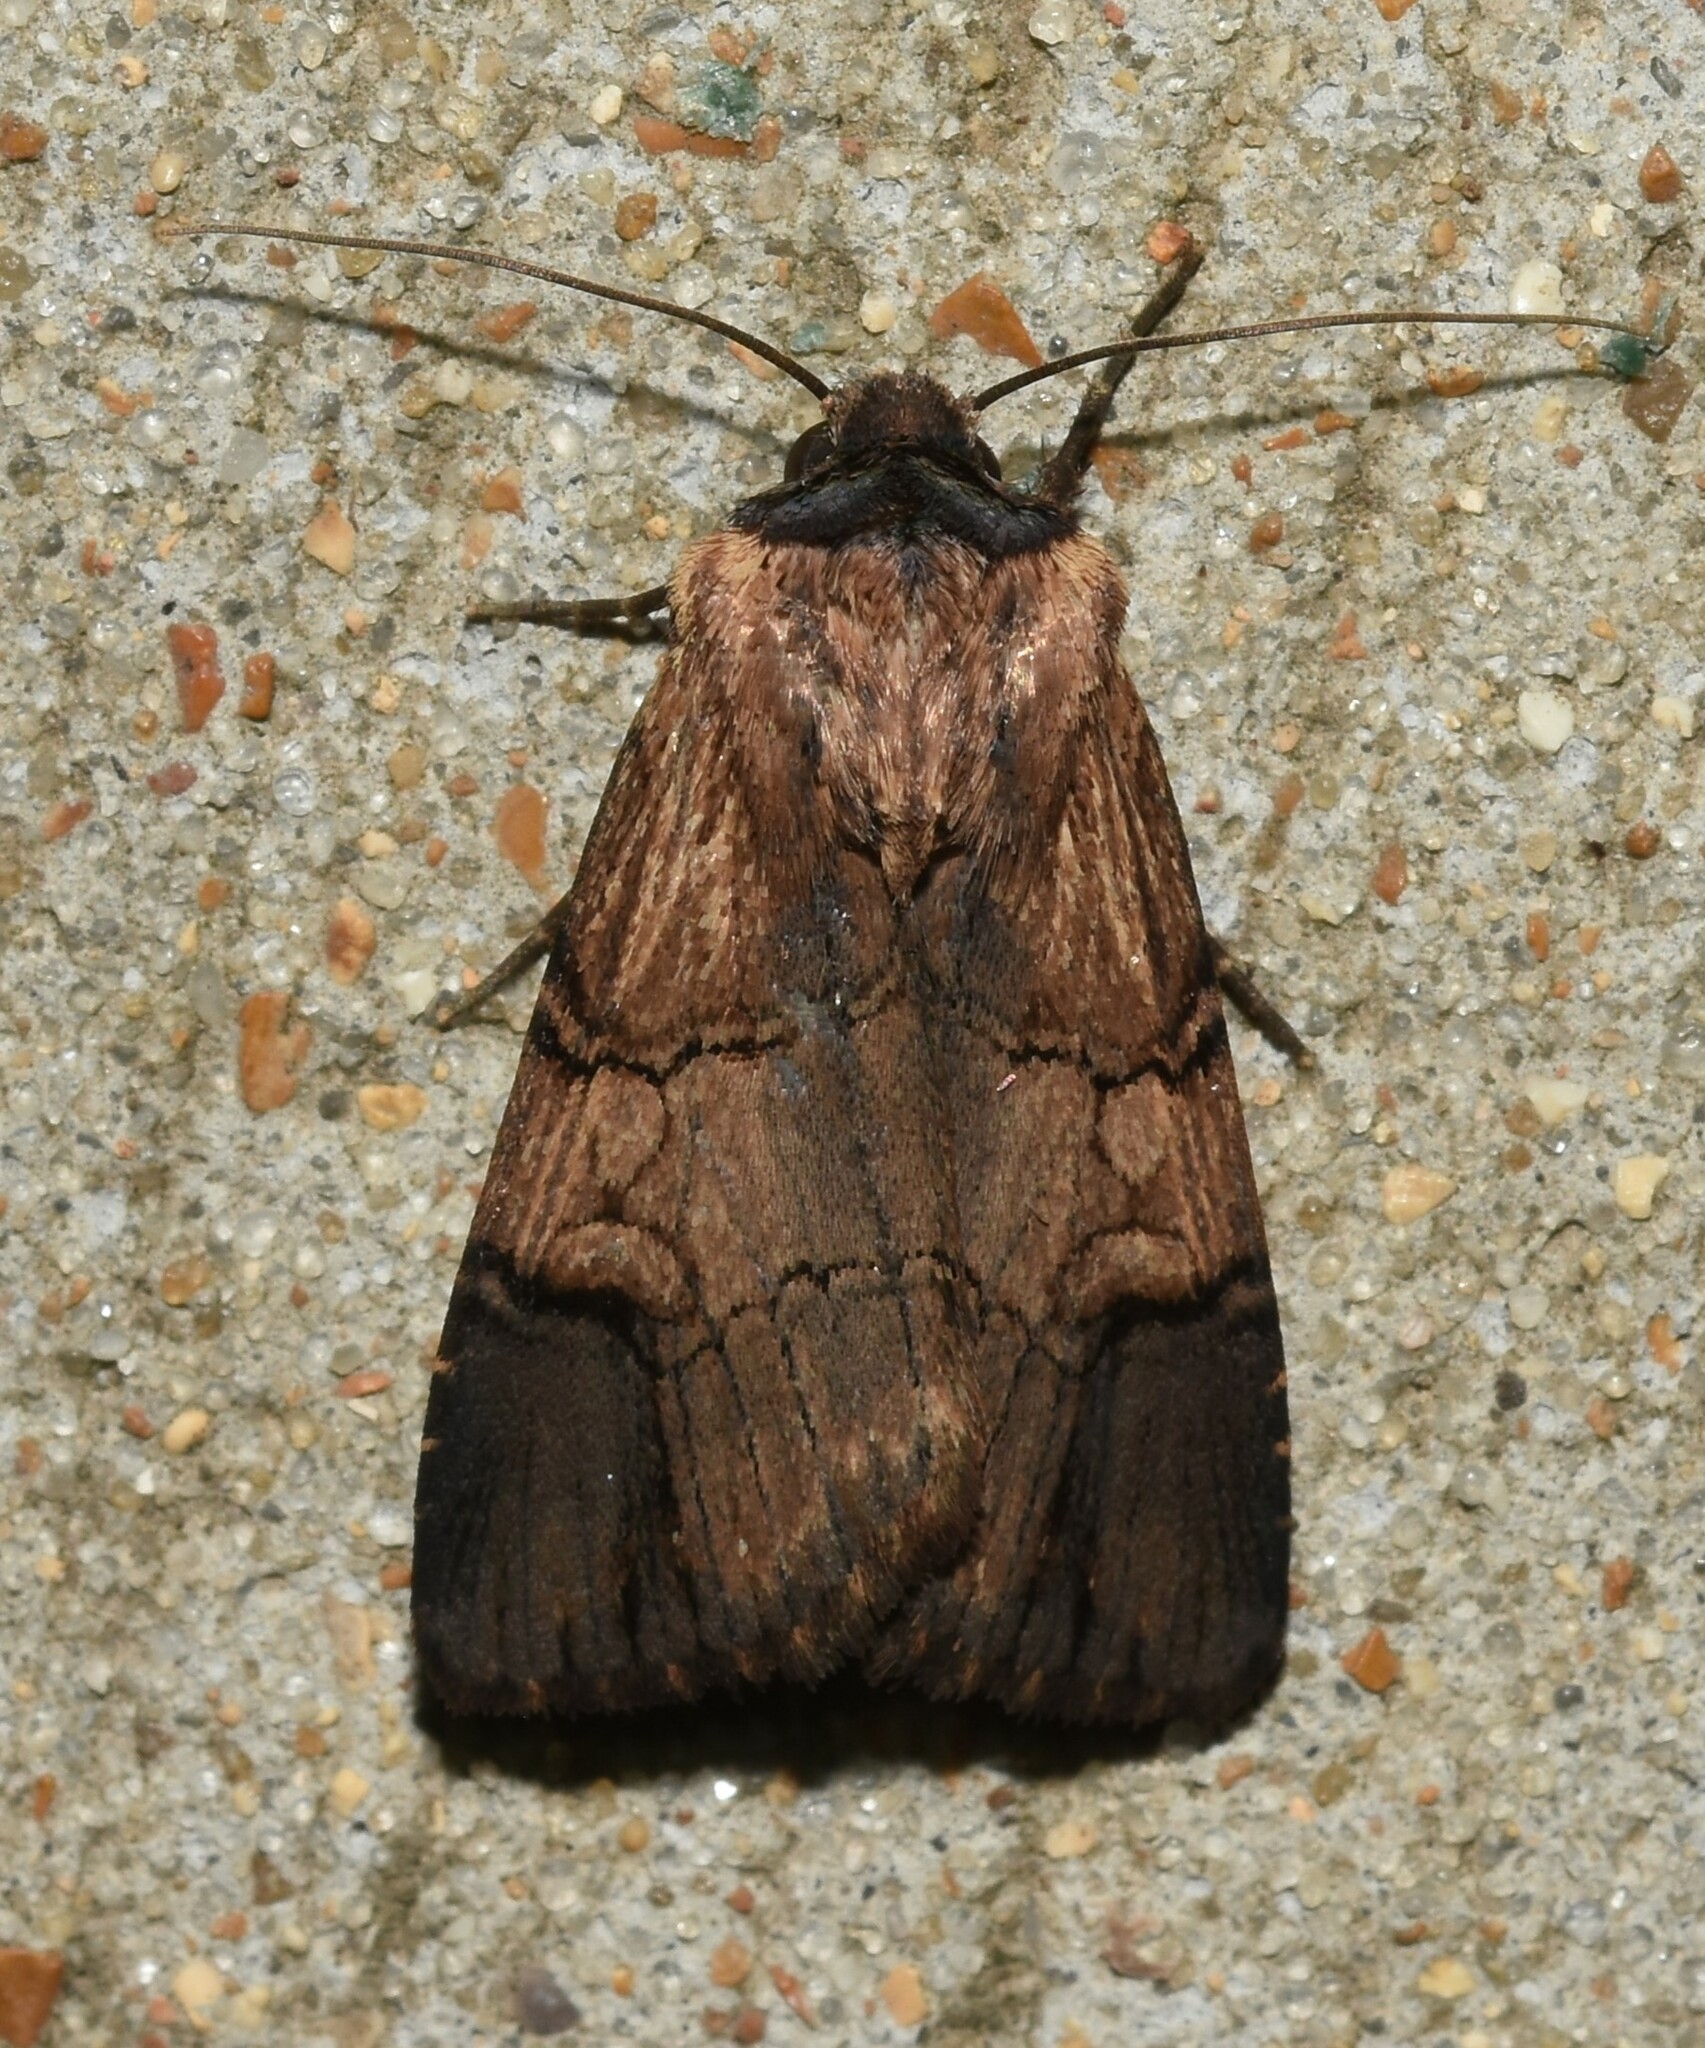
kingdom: Animalia
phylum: Arthropoda
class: Insecta
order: Lepidoptera
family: Noctuidae
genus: Dichagyris
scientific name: Dichagyris grotei
